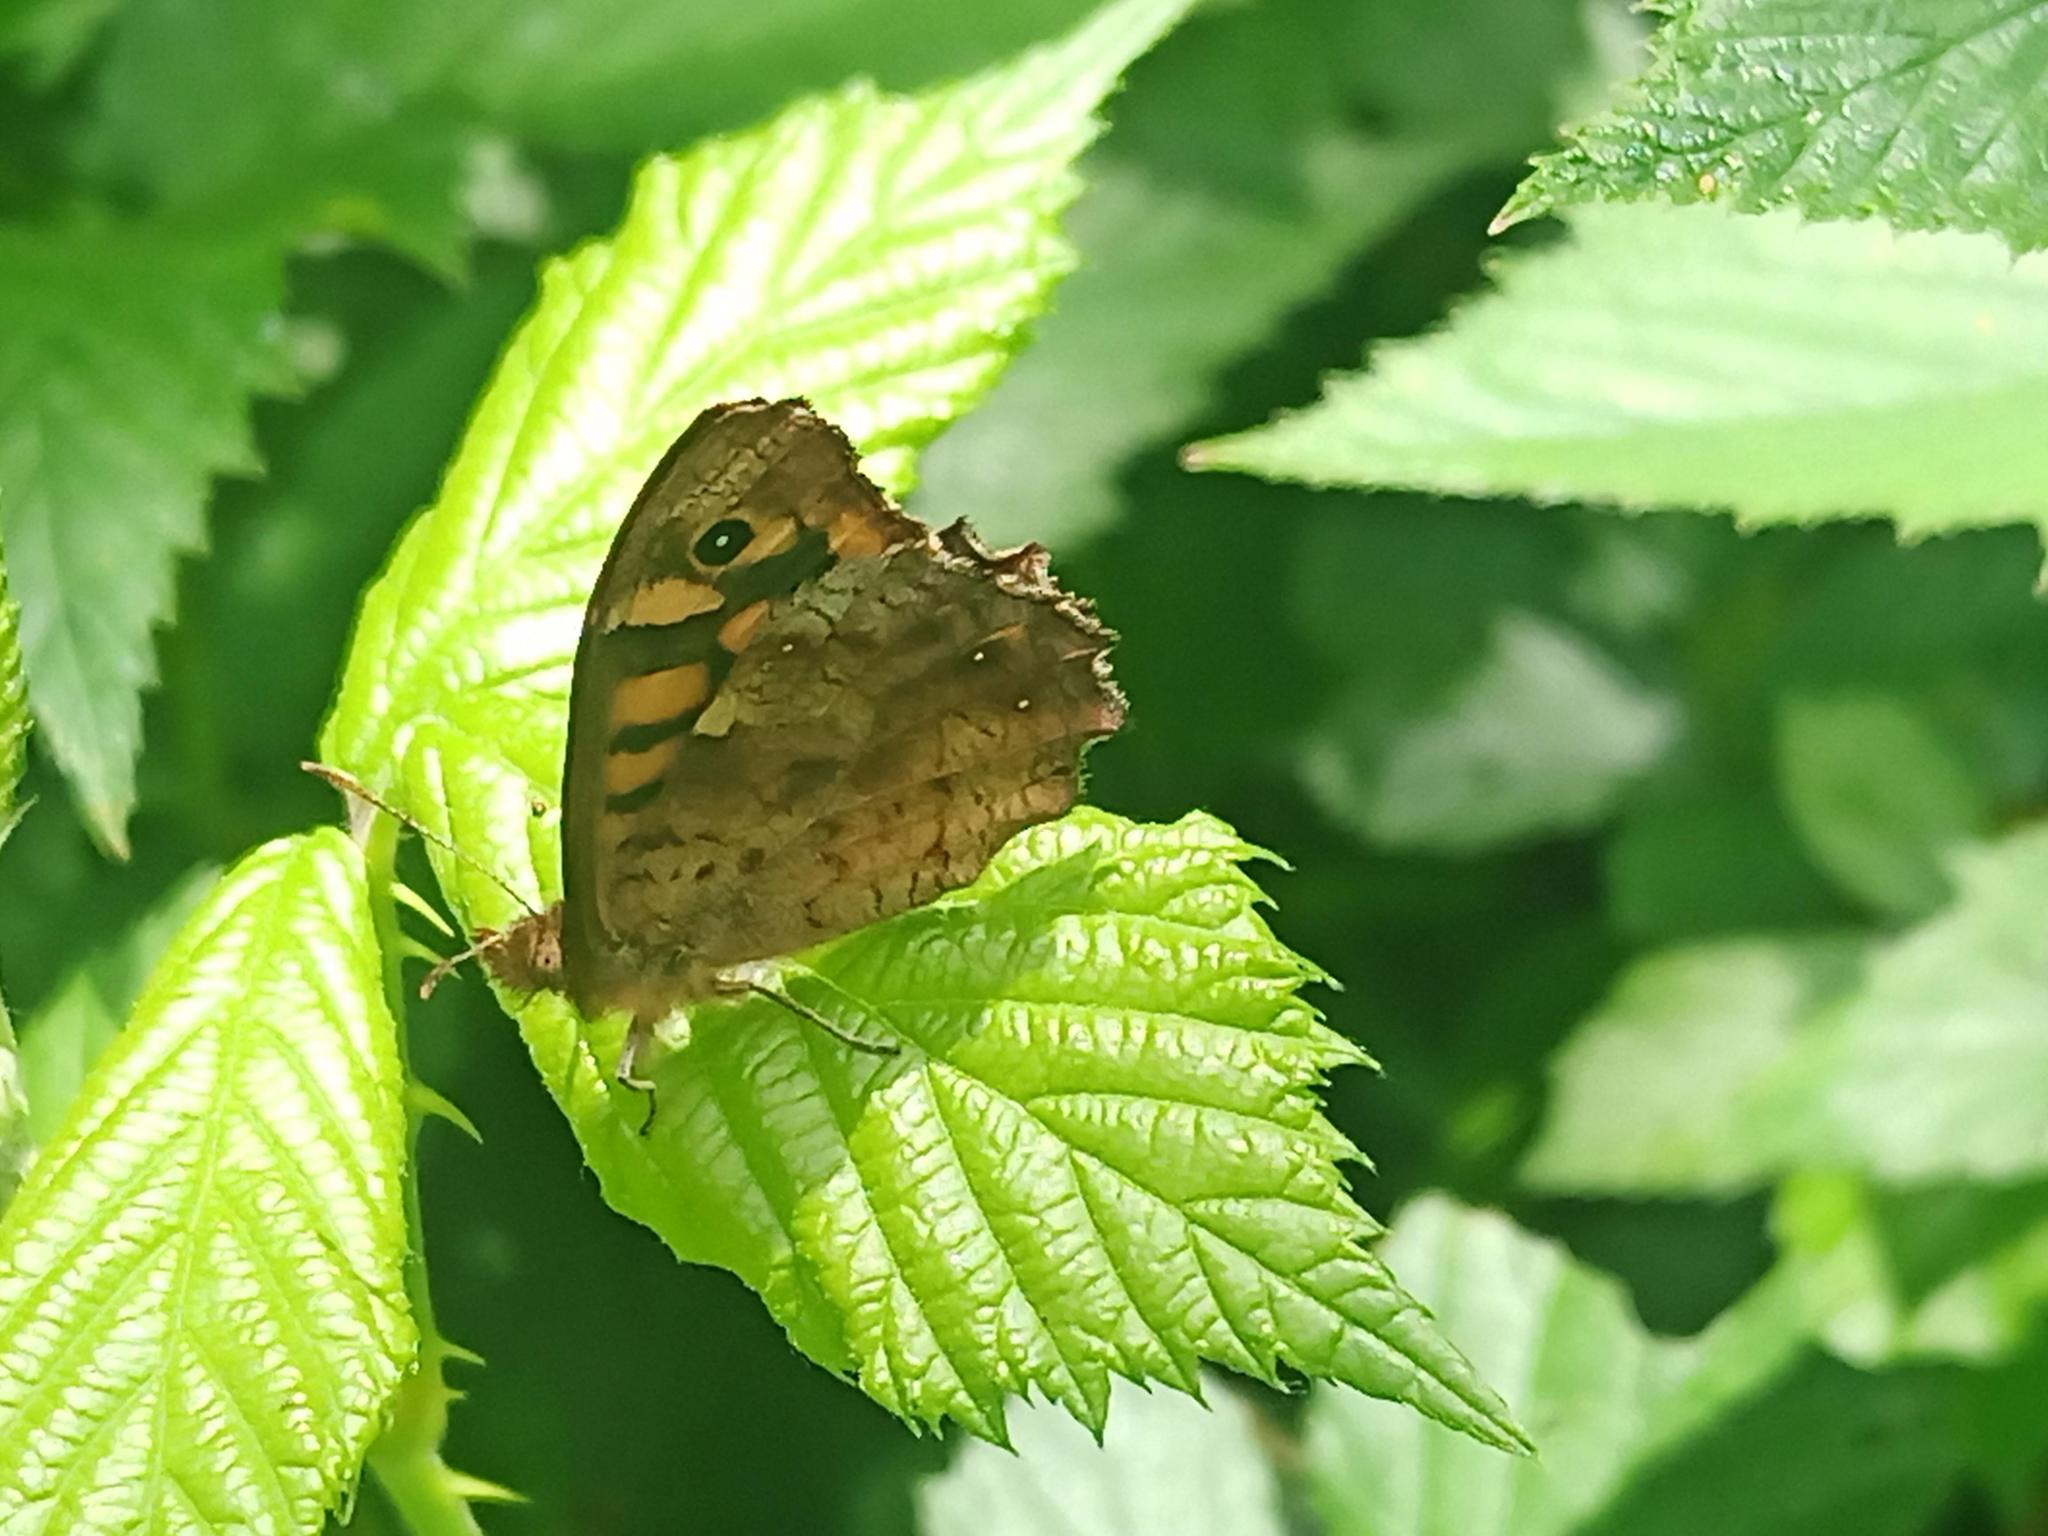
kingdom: Animalia
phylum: Arthropoda
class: Insecta
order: Lepidoptera
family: Nymphalidae
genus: Pararge
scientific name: Pararge aegeria
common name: Speckled wood
